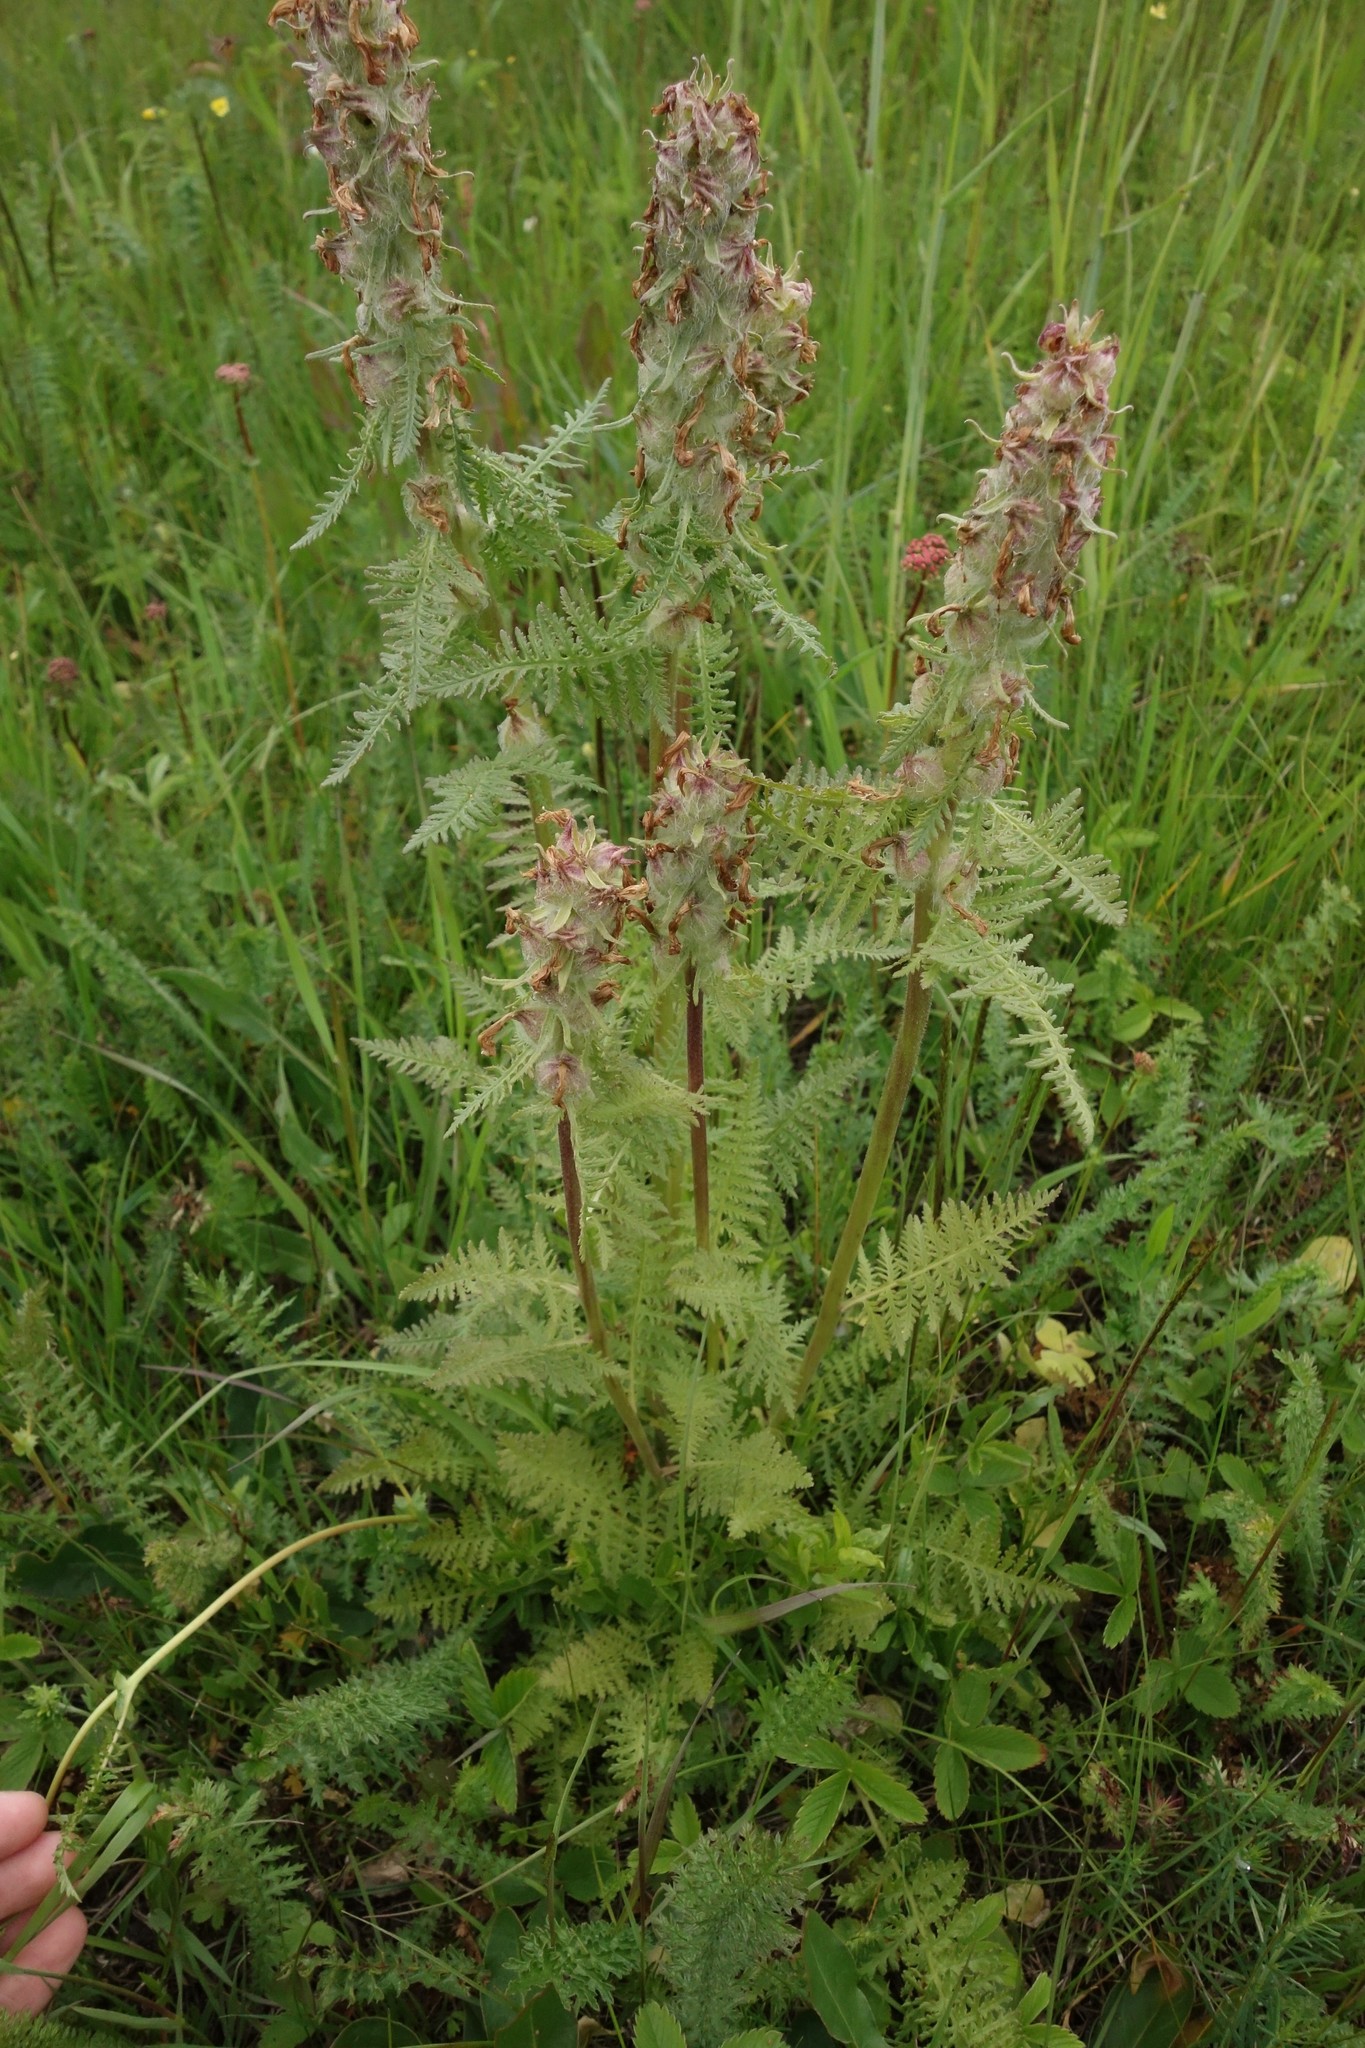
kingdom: Plantae
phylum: Tracheophyta
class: Magnoliopsida
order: Lamiales
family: Orobanchaceae
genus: Pedicularis
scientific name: Pedicularis dasystachys
